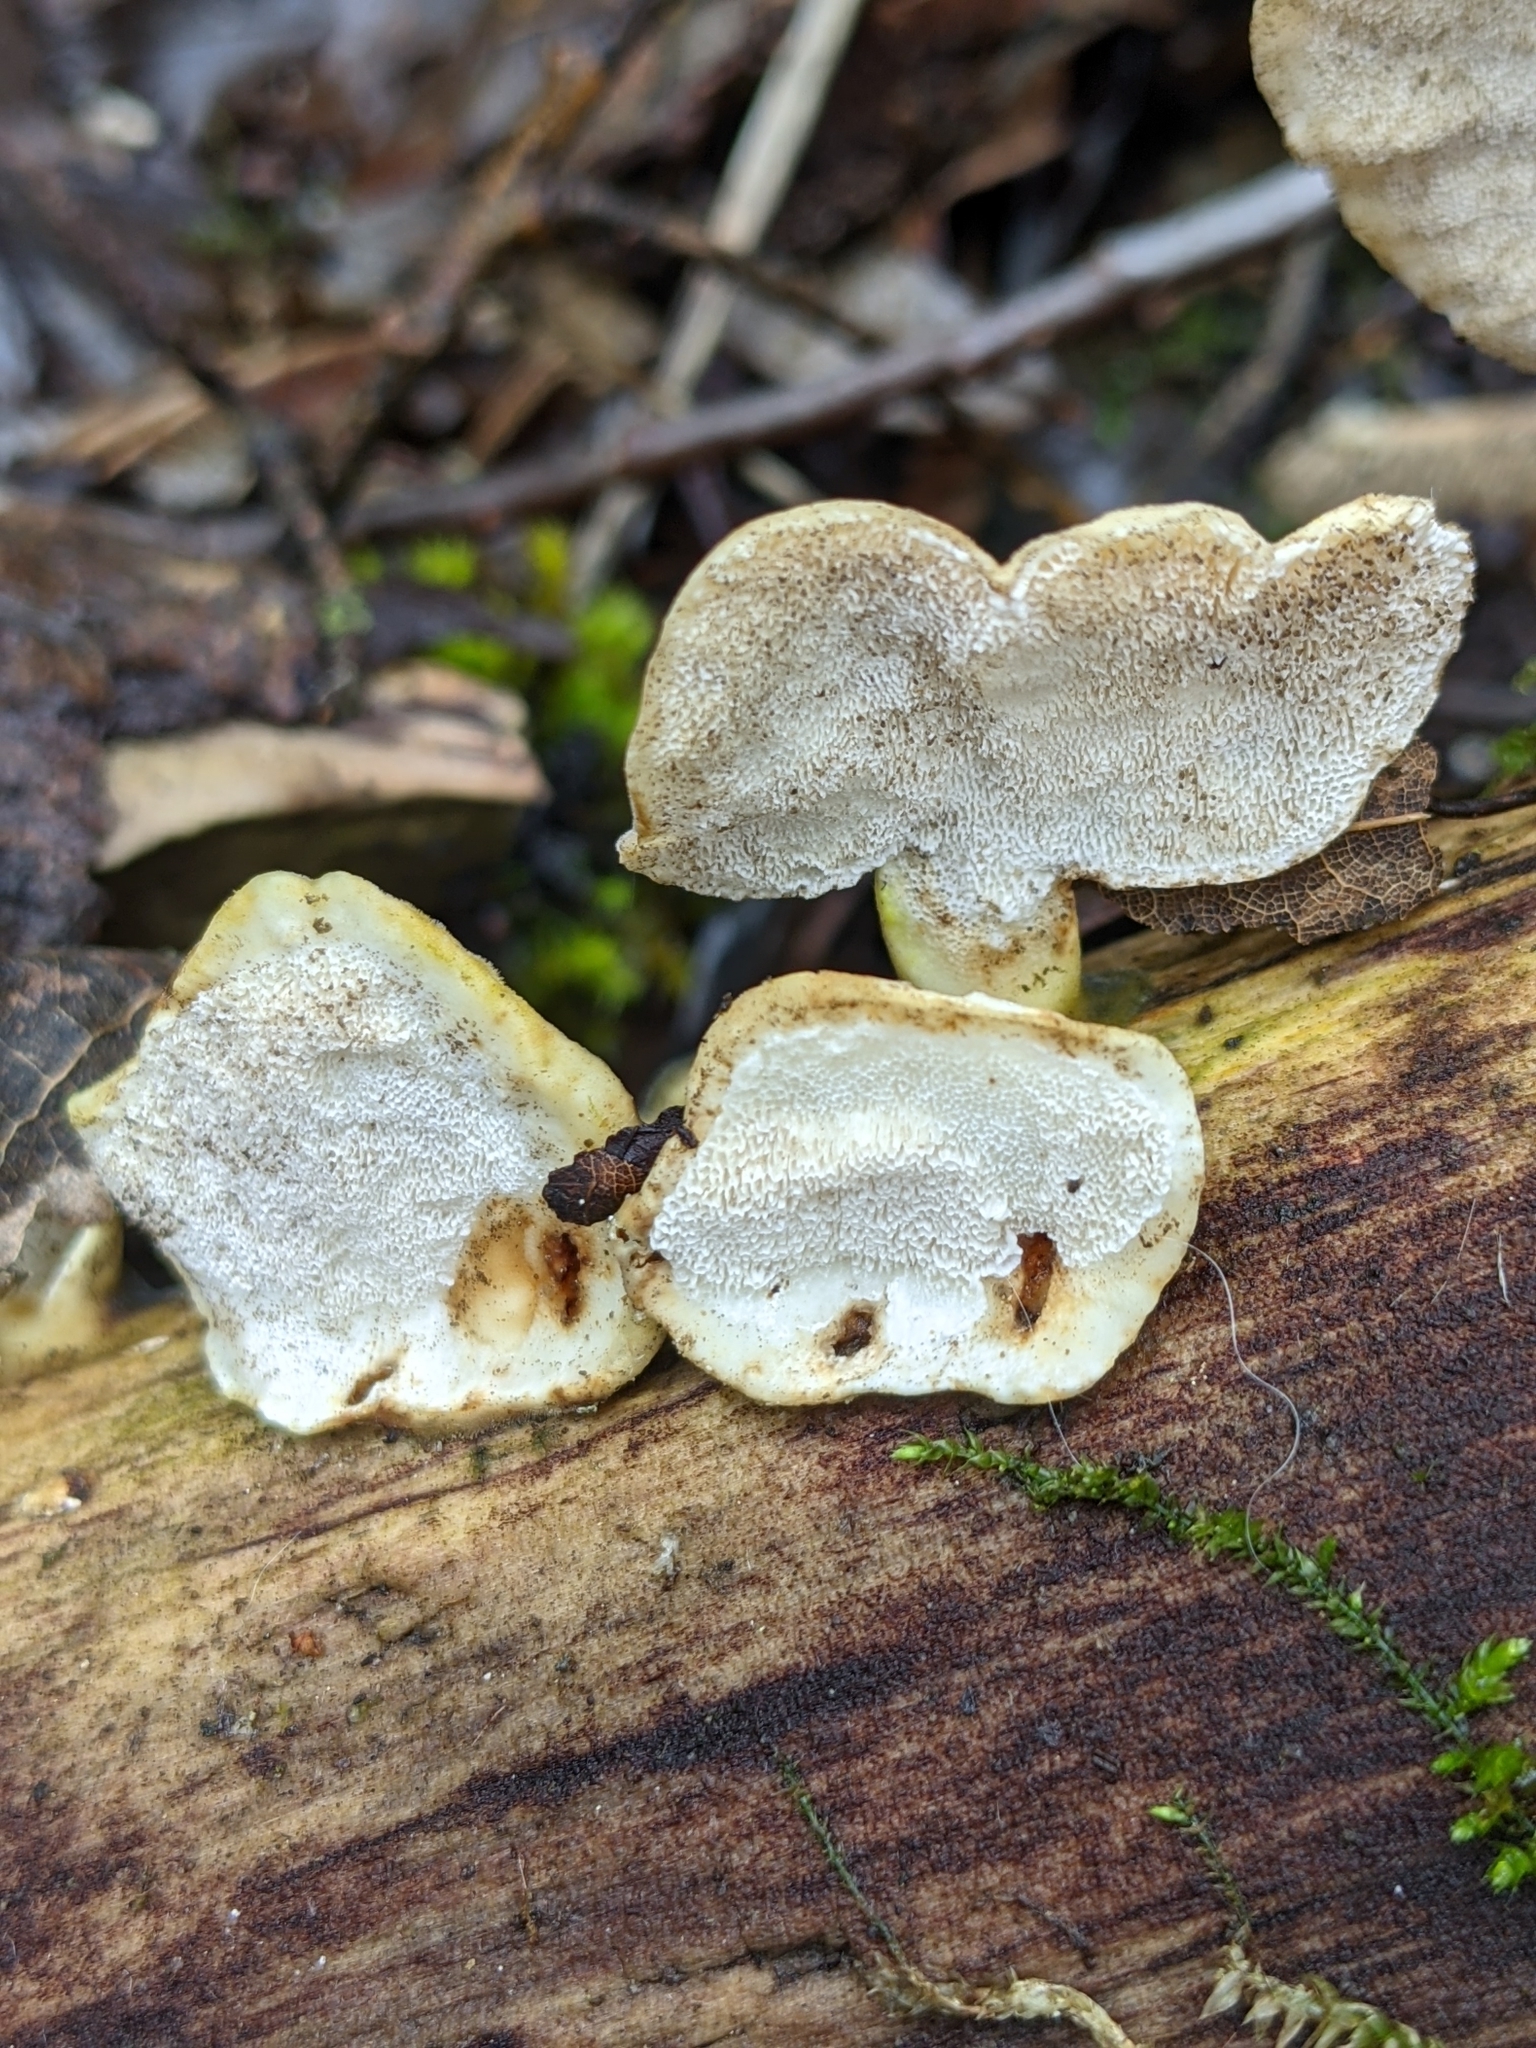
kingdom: Fungi
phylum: Basidiomycota
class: Agaricomycetes
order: Polyporales
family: Polyporaceae
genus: Trametes
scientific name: Trametes versicolor
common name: Turkeytail
